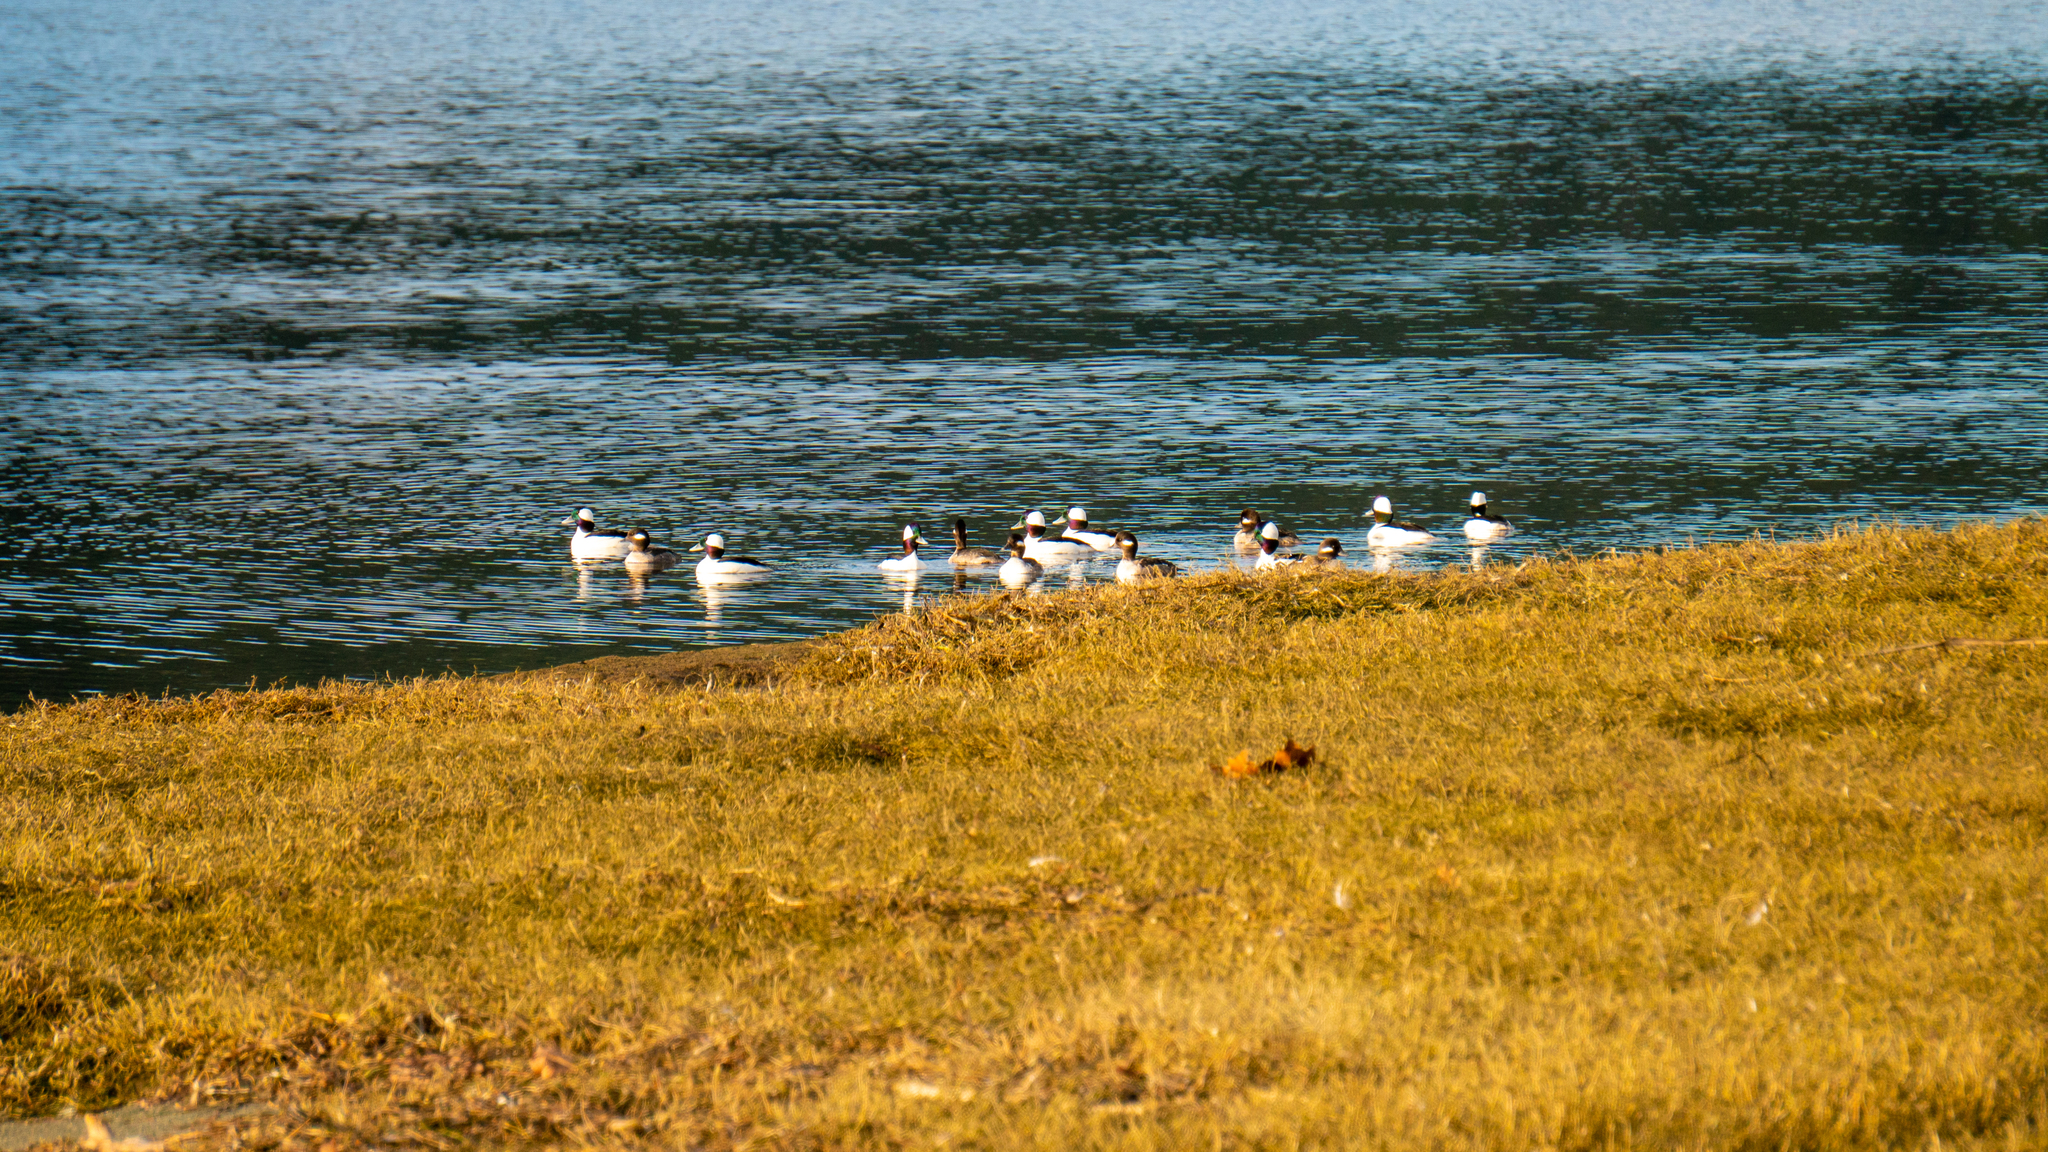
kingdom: Animalia
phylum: Chordata
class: Aves
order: Anseriformes
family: Anatidae
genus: Bucephala
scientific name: Bucephala albeola
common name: Bufflehead
